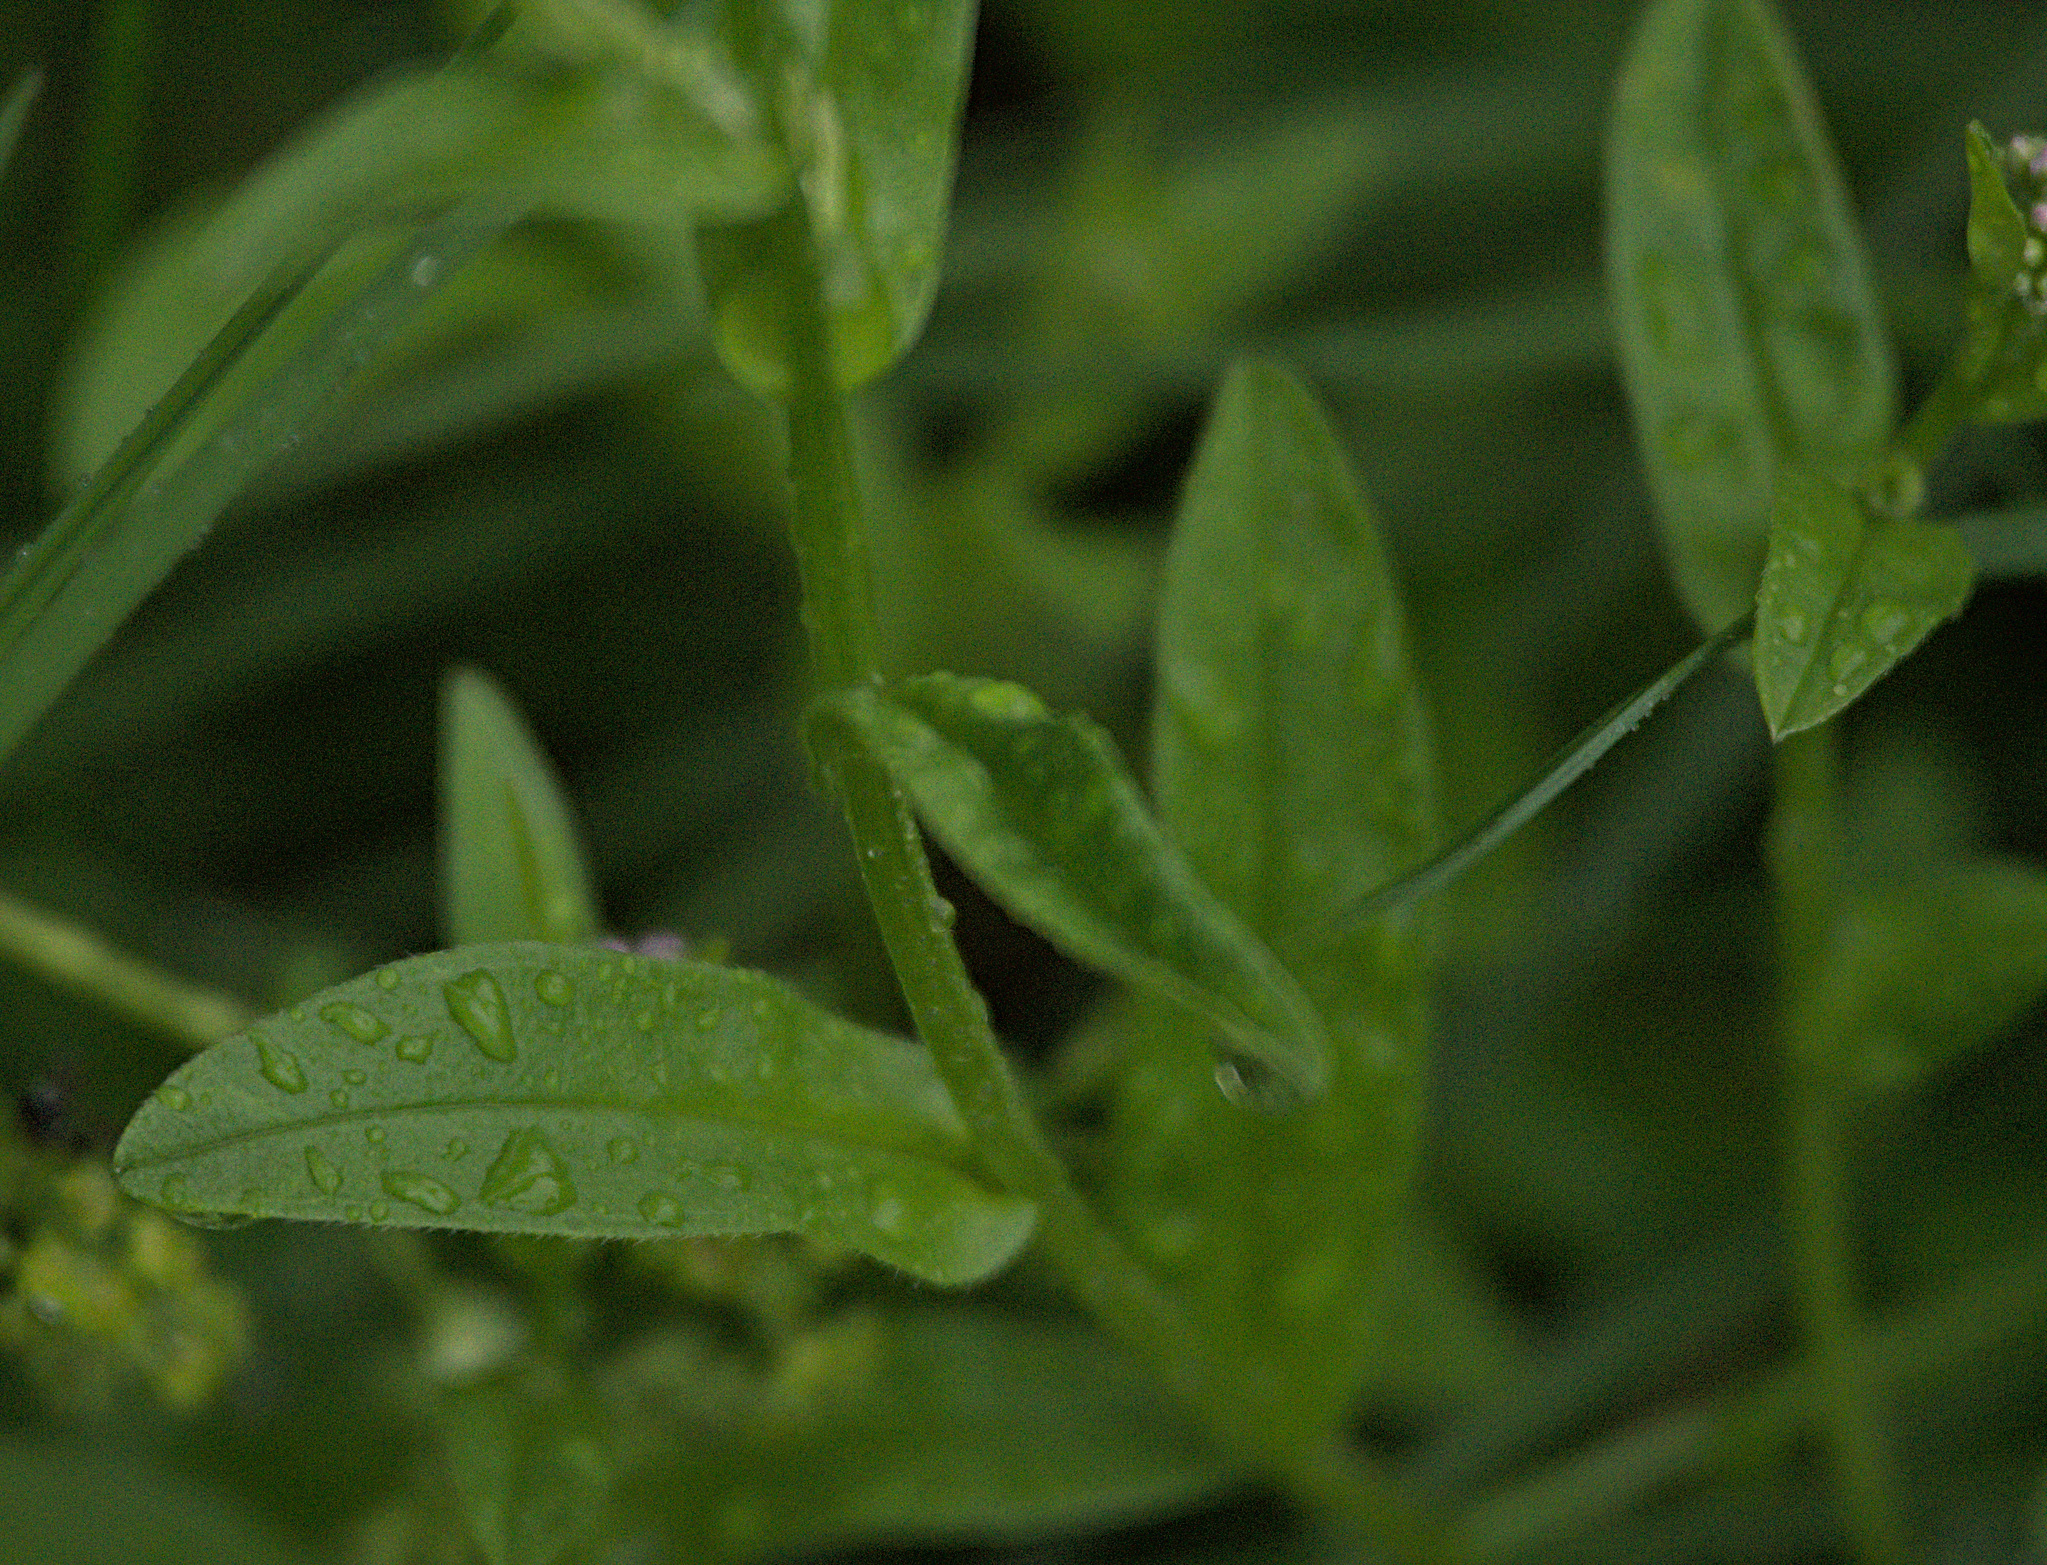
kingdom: Plantae
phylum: Tracheophyta
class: Magnoliopsida
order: Boraginales
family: Boraginaceae
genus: Myosotis
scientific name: Myosotis scorpioides
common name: Water forget-me-not
